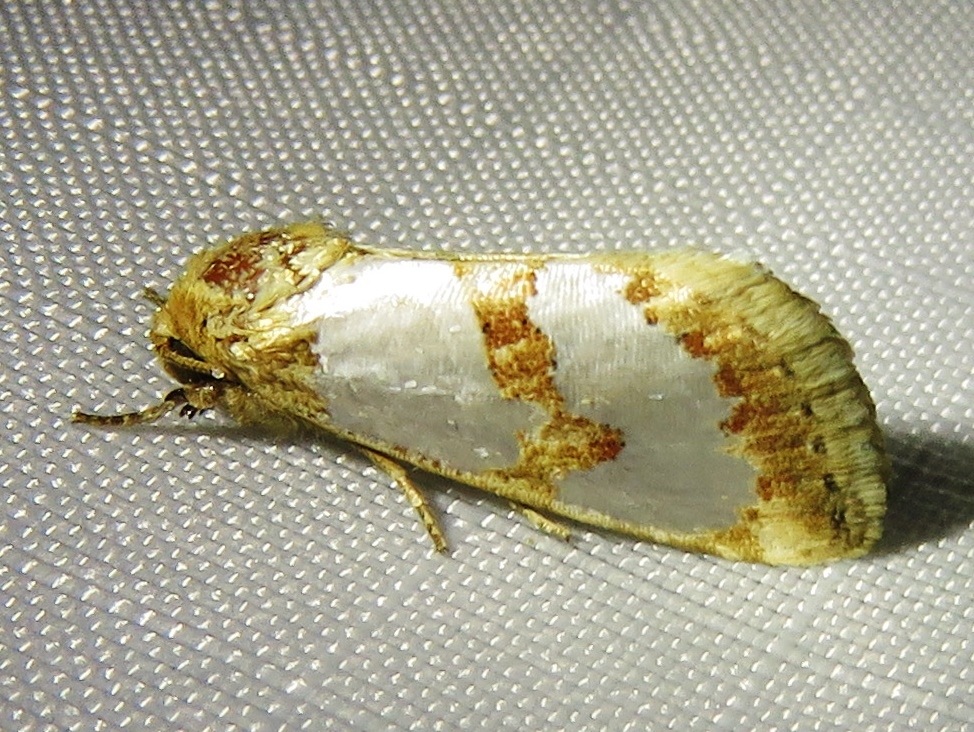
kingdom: Animalia
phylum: Arthropoda
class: Insecta
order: Lepidoptera
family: Noctuidae
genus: Schinia
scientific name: Schinia chrysellus
